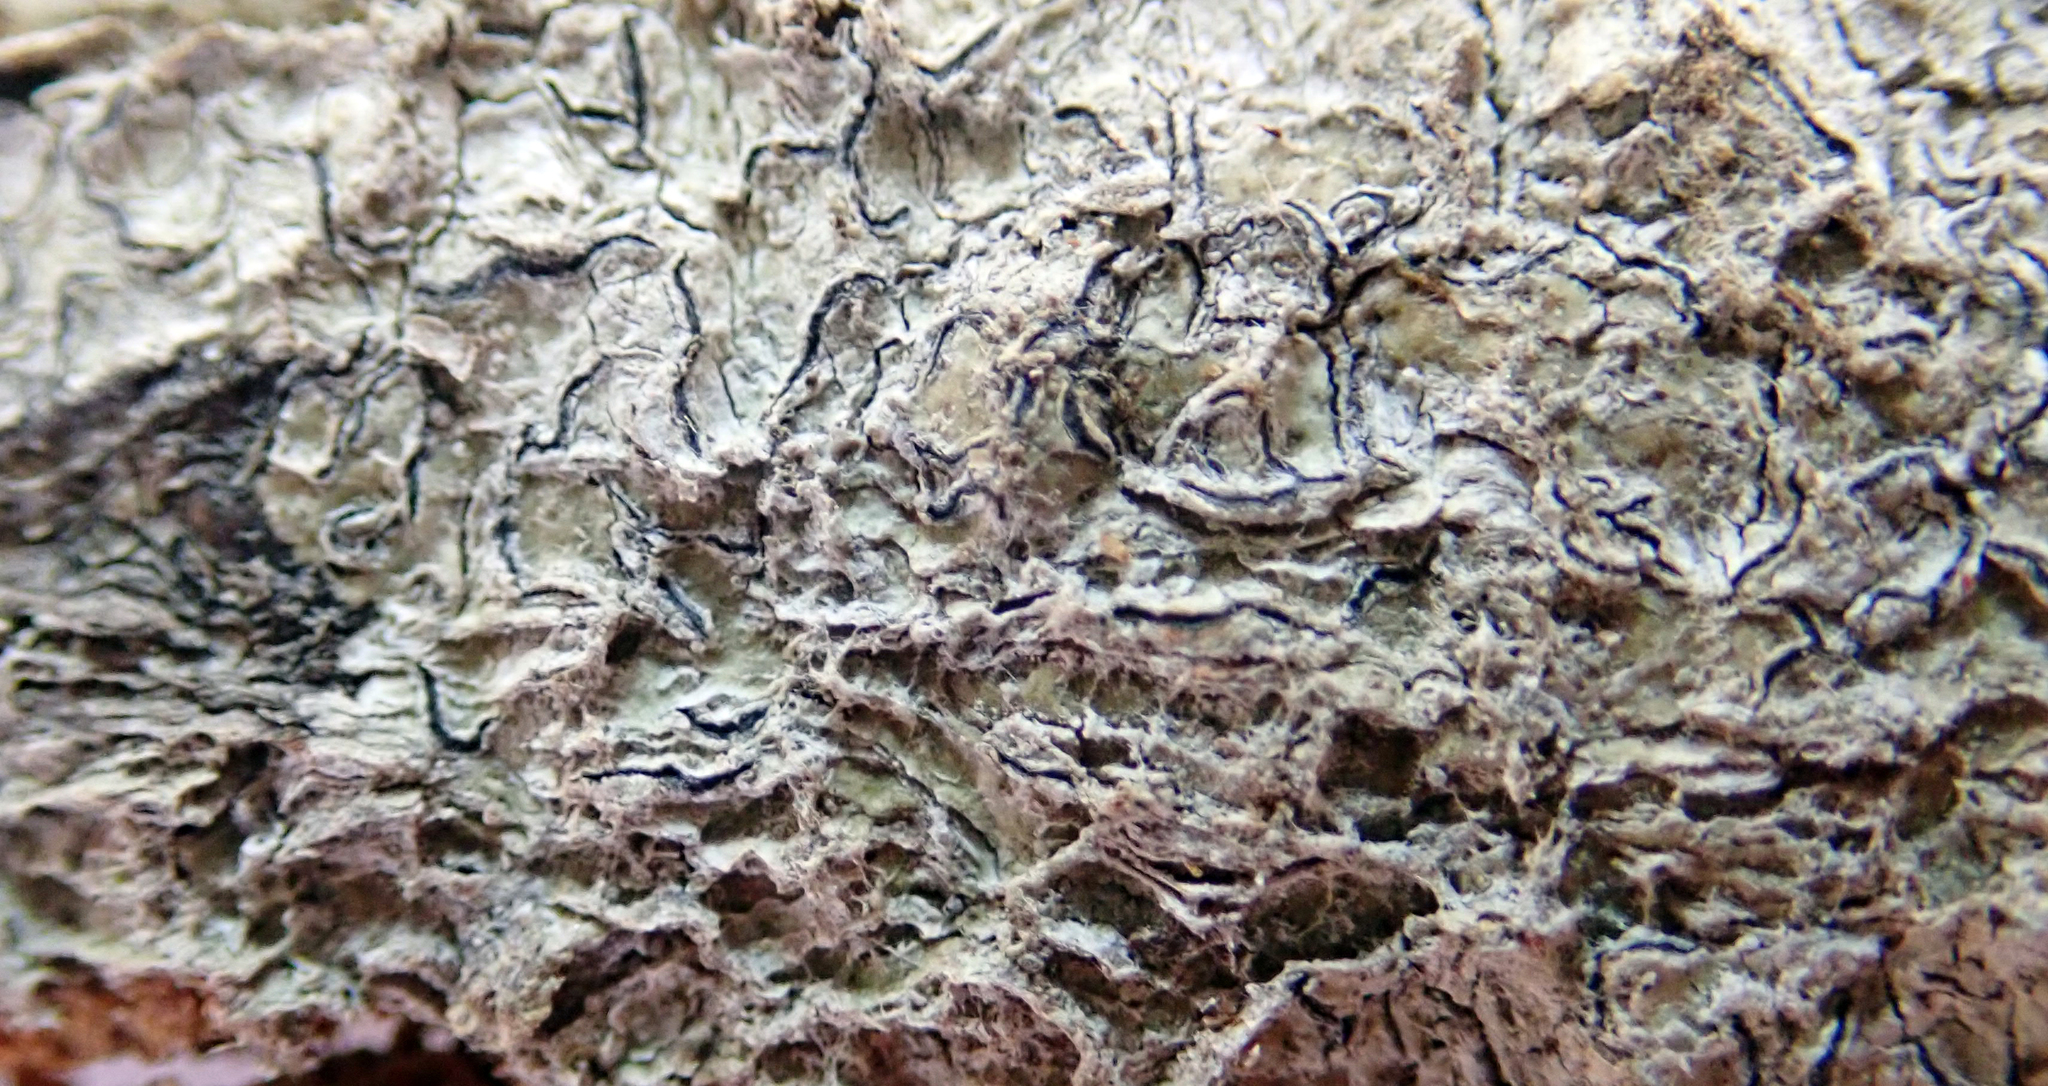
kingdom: Fungi
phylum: Ascomycota
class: Lecanoromycetes
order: Ostropales
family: Graphidaceae
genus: Fissurina
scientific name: Fissurina
